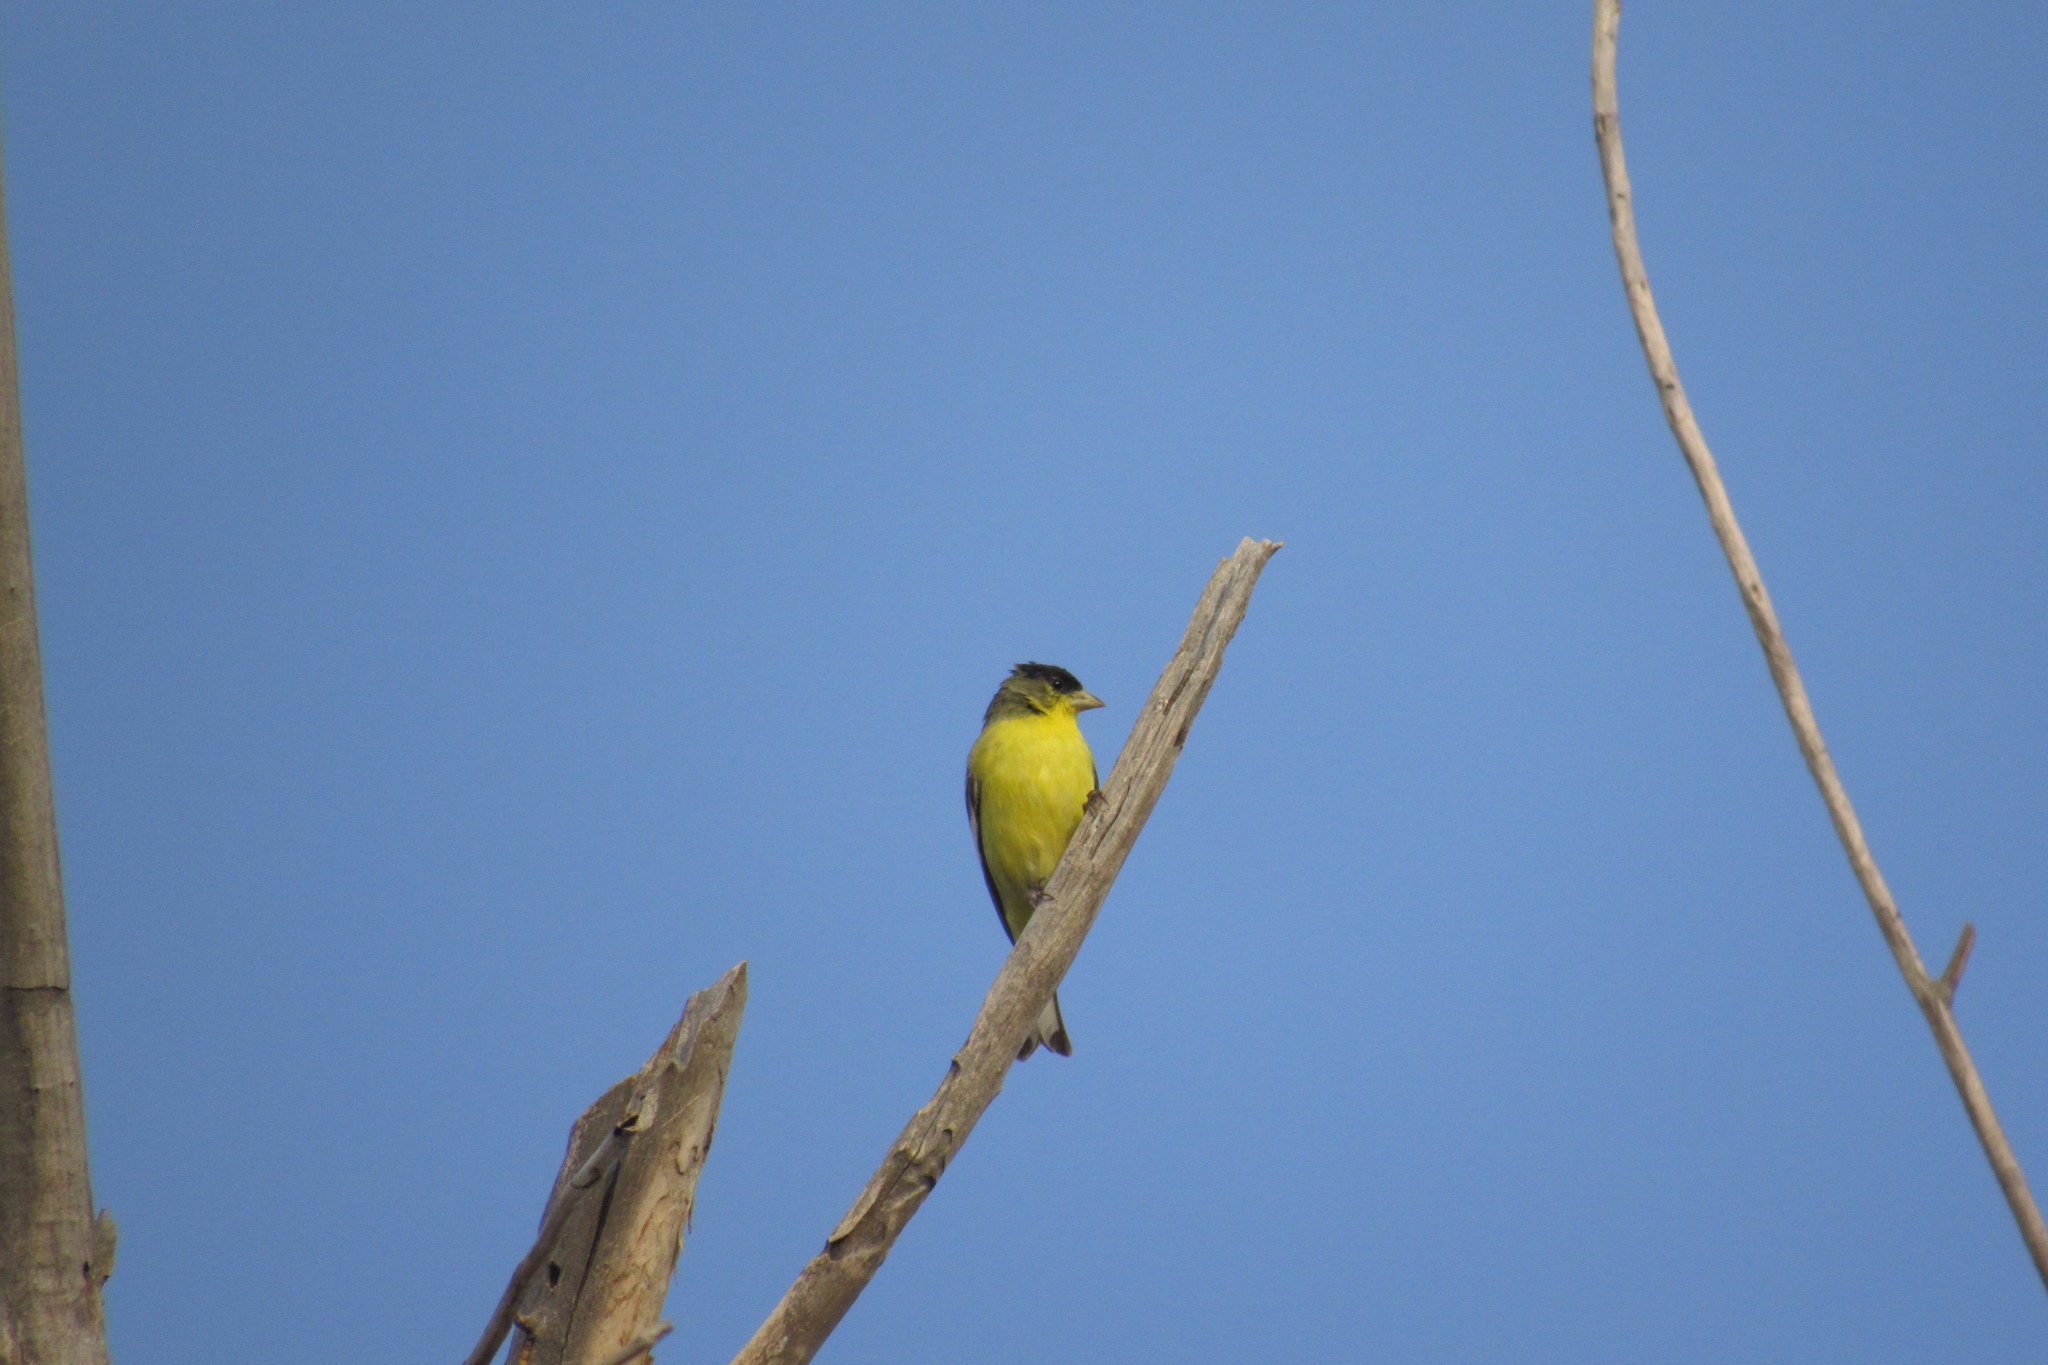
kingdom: Animalia
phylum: Chordata
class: Aves
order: Passeriformes
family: Fringillidae
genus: Spinus
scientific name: Spinus psaltria
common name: Lesser goldfinch
